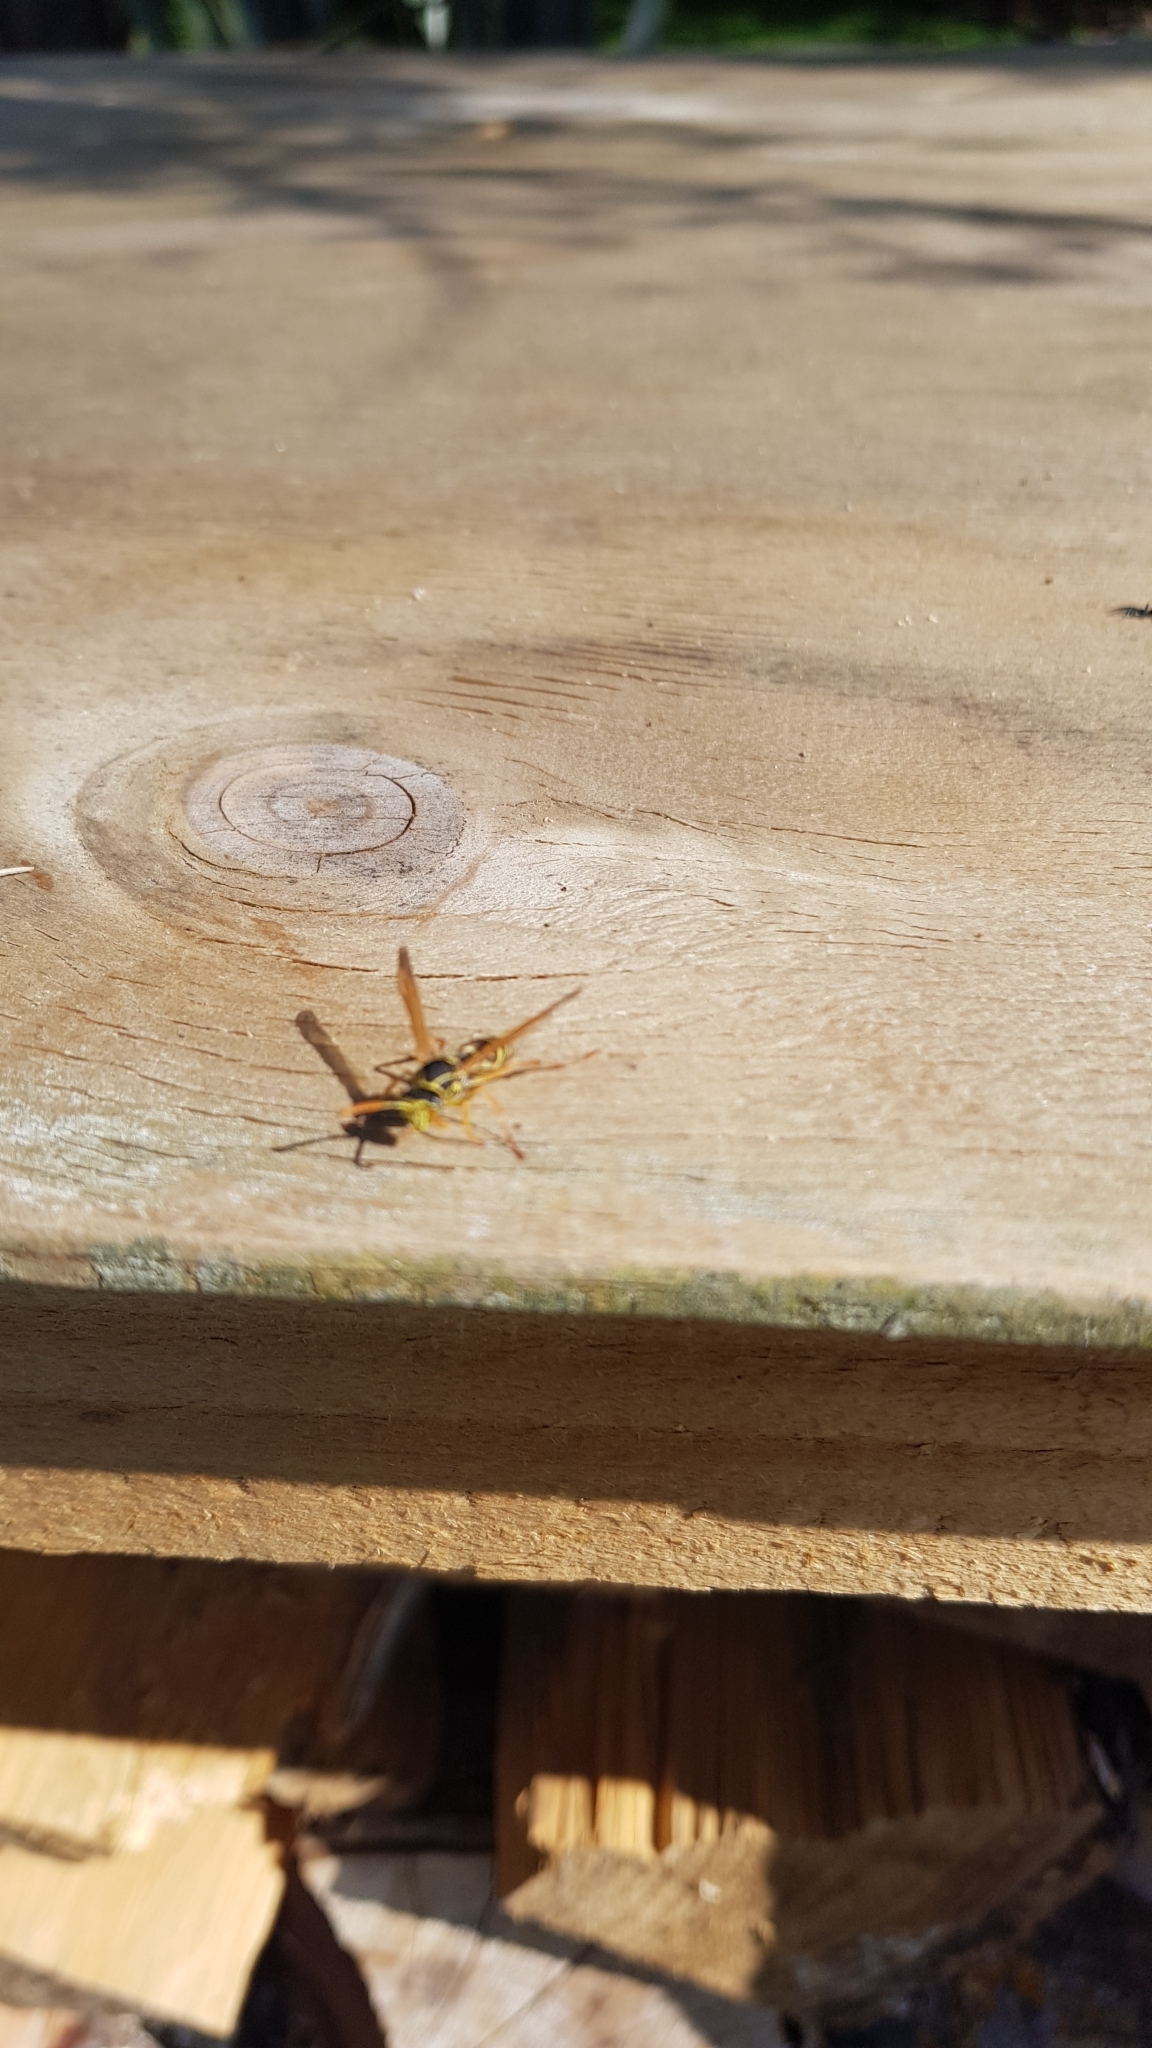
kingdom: Animalia
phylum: Arthropoda
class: Insecta
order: Hymenoptera
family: Eumenidae
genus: Polistes
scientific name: Polistes chinensis
